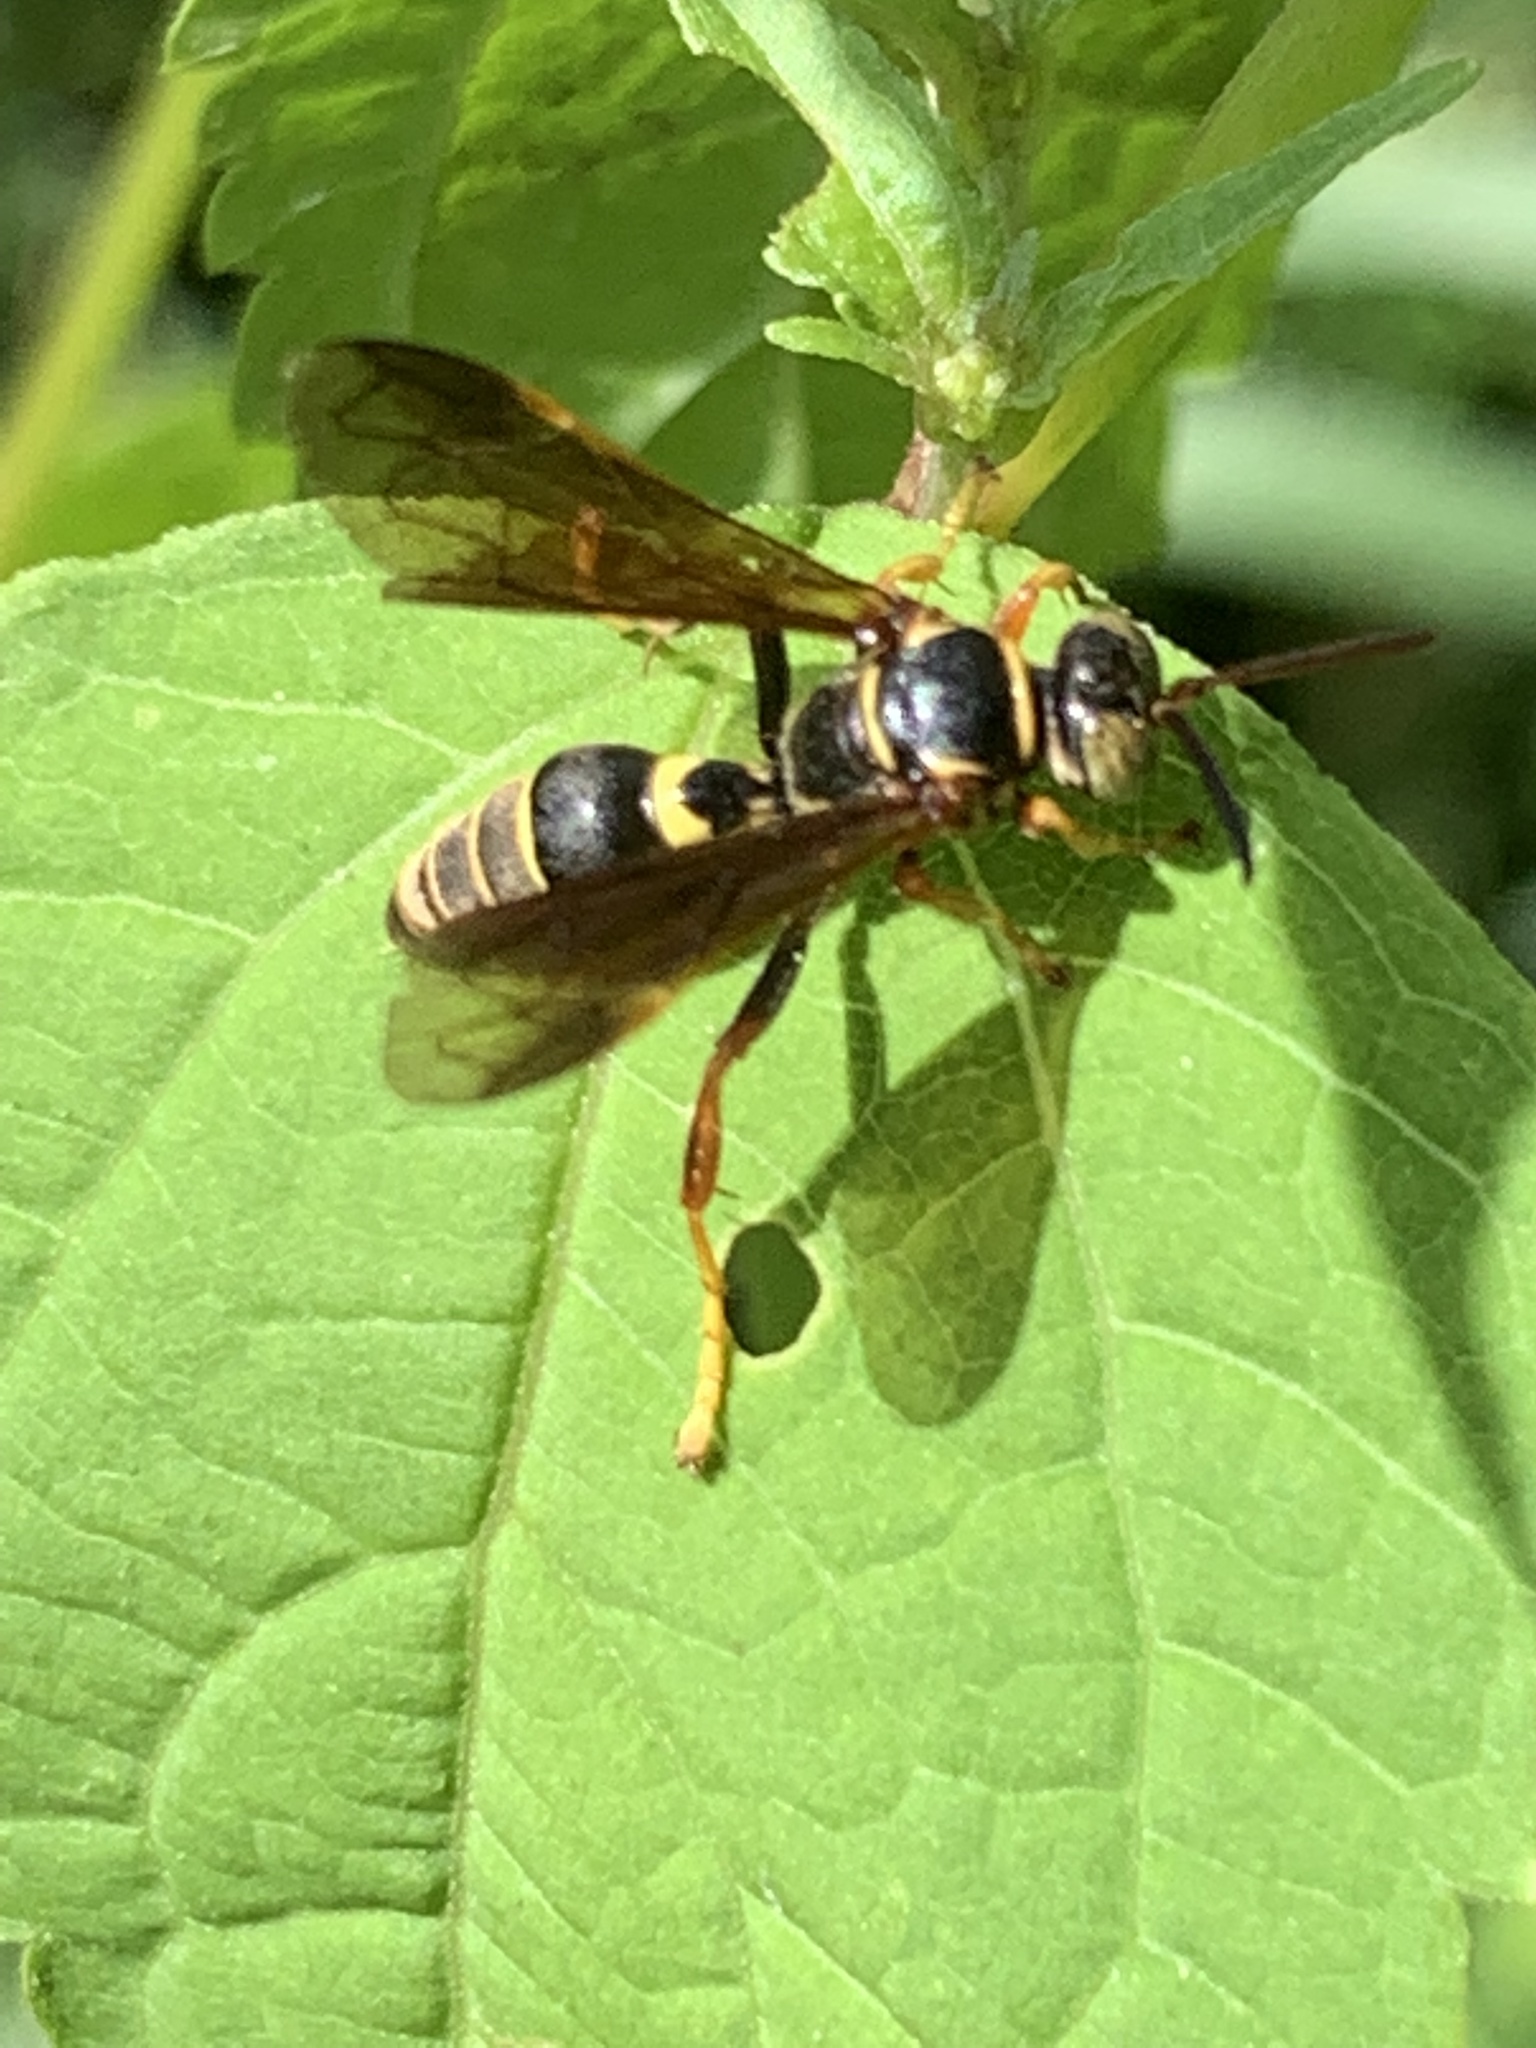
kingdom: Animalia
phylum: Arthropoda
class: Insecta
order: Hymenoptera
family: Crabronidae
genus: Saygorytes
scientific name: Saygorytes phaleratus
